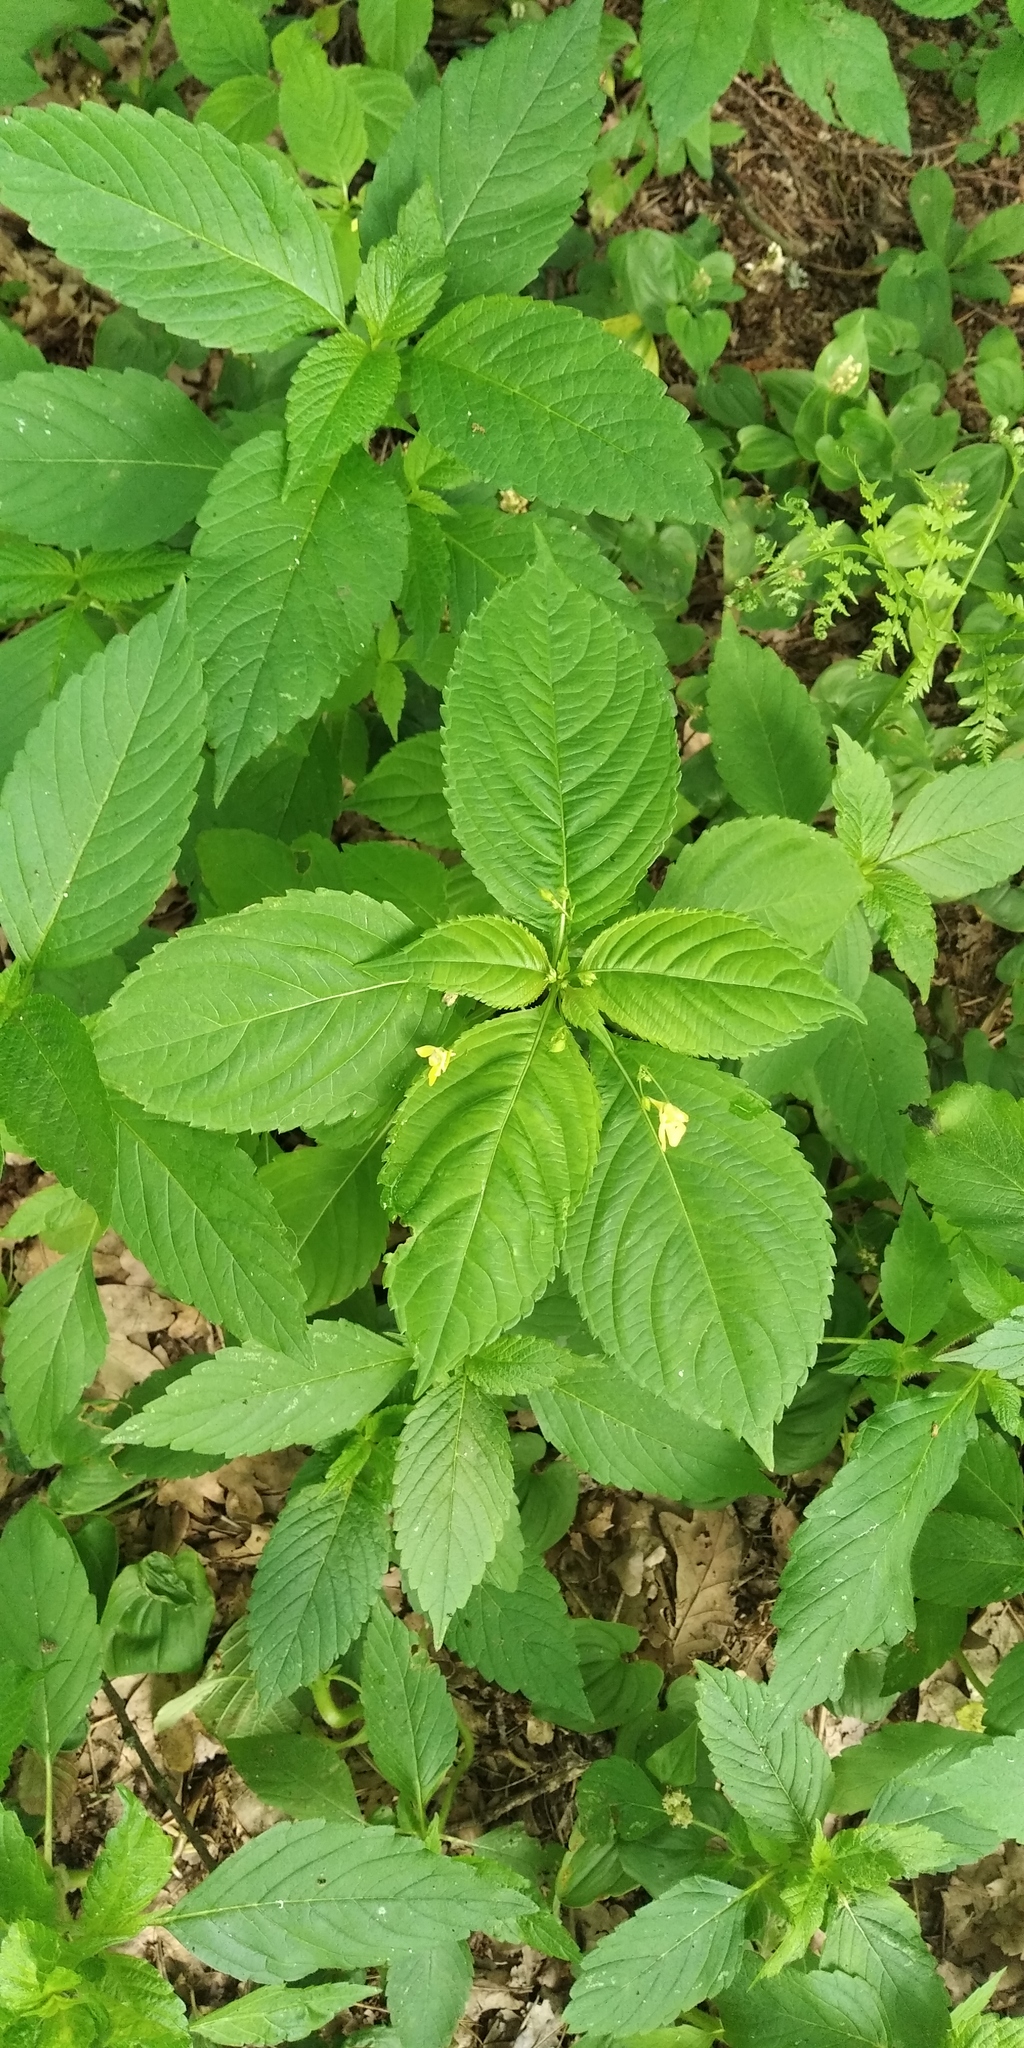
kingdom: Plantae
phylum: Tracheophyta
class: Magnoliopsida
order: Ericales
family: Balsaminaceae
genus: Impatiens
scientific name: Impatiens parviflora
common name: Small balsam
